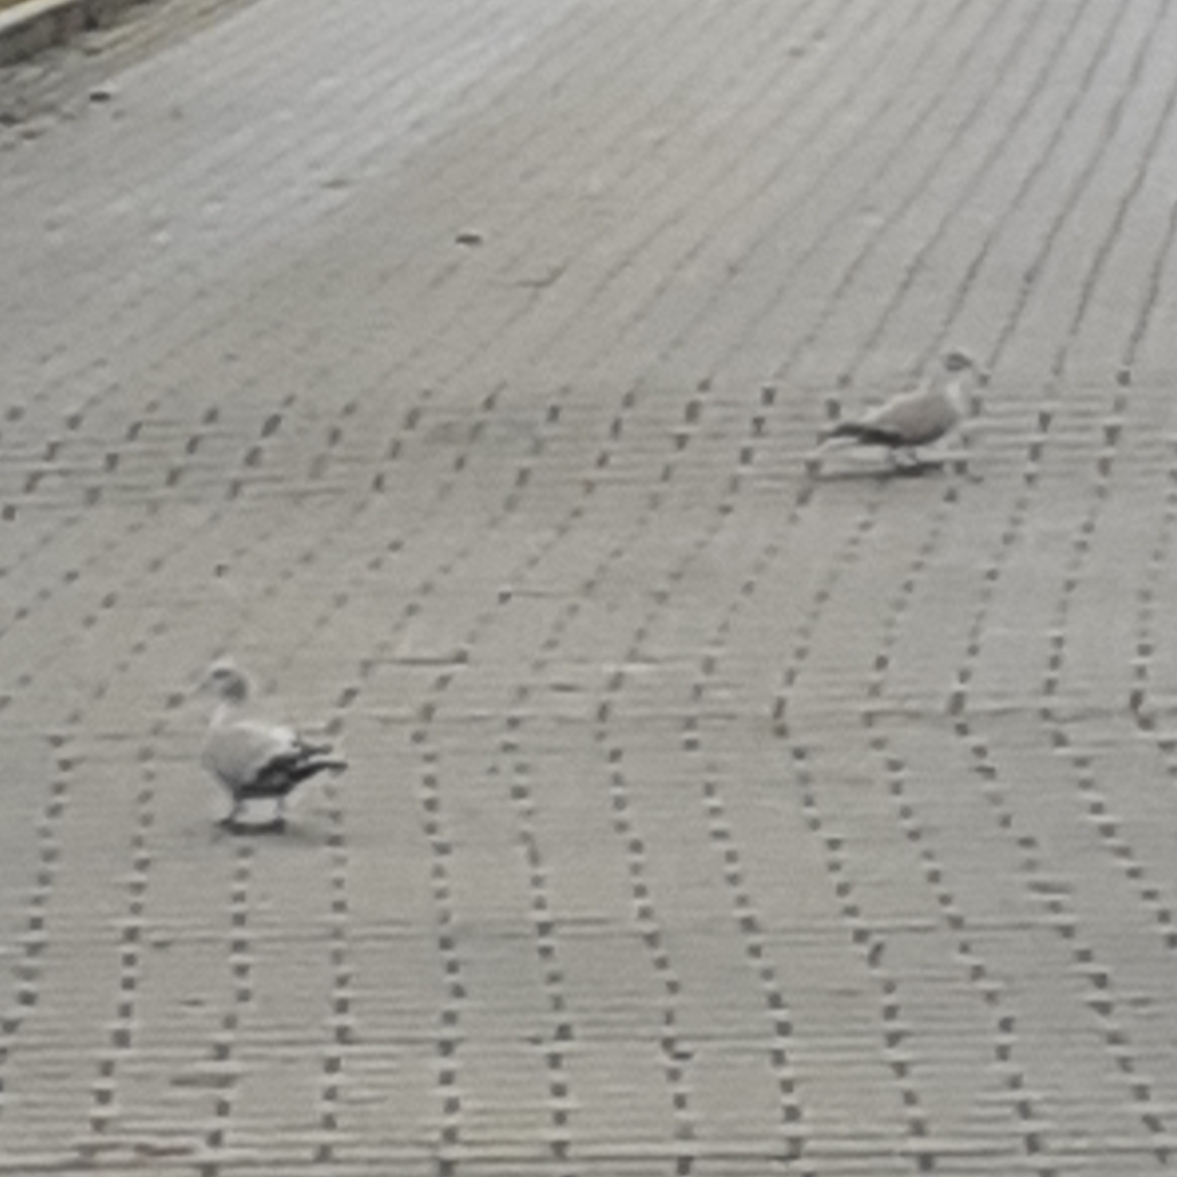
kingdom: Animalia
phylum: Chordata
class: Aves
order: Columbiformes
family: Columbidae
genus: Streptopelia
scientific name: Streptopelia decaocto
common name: Eurasian collared dove
